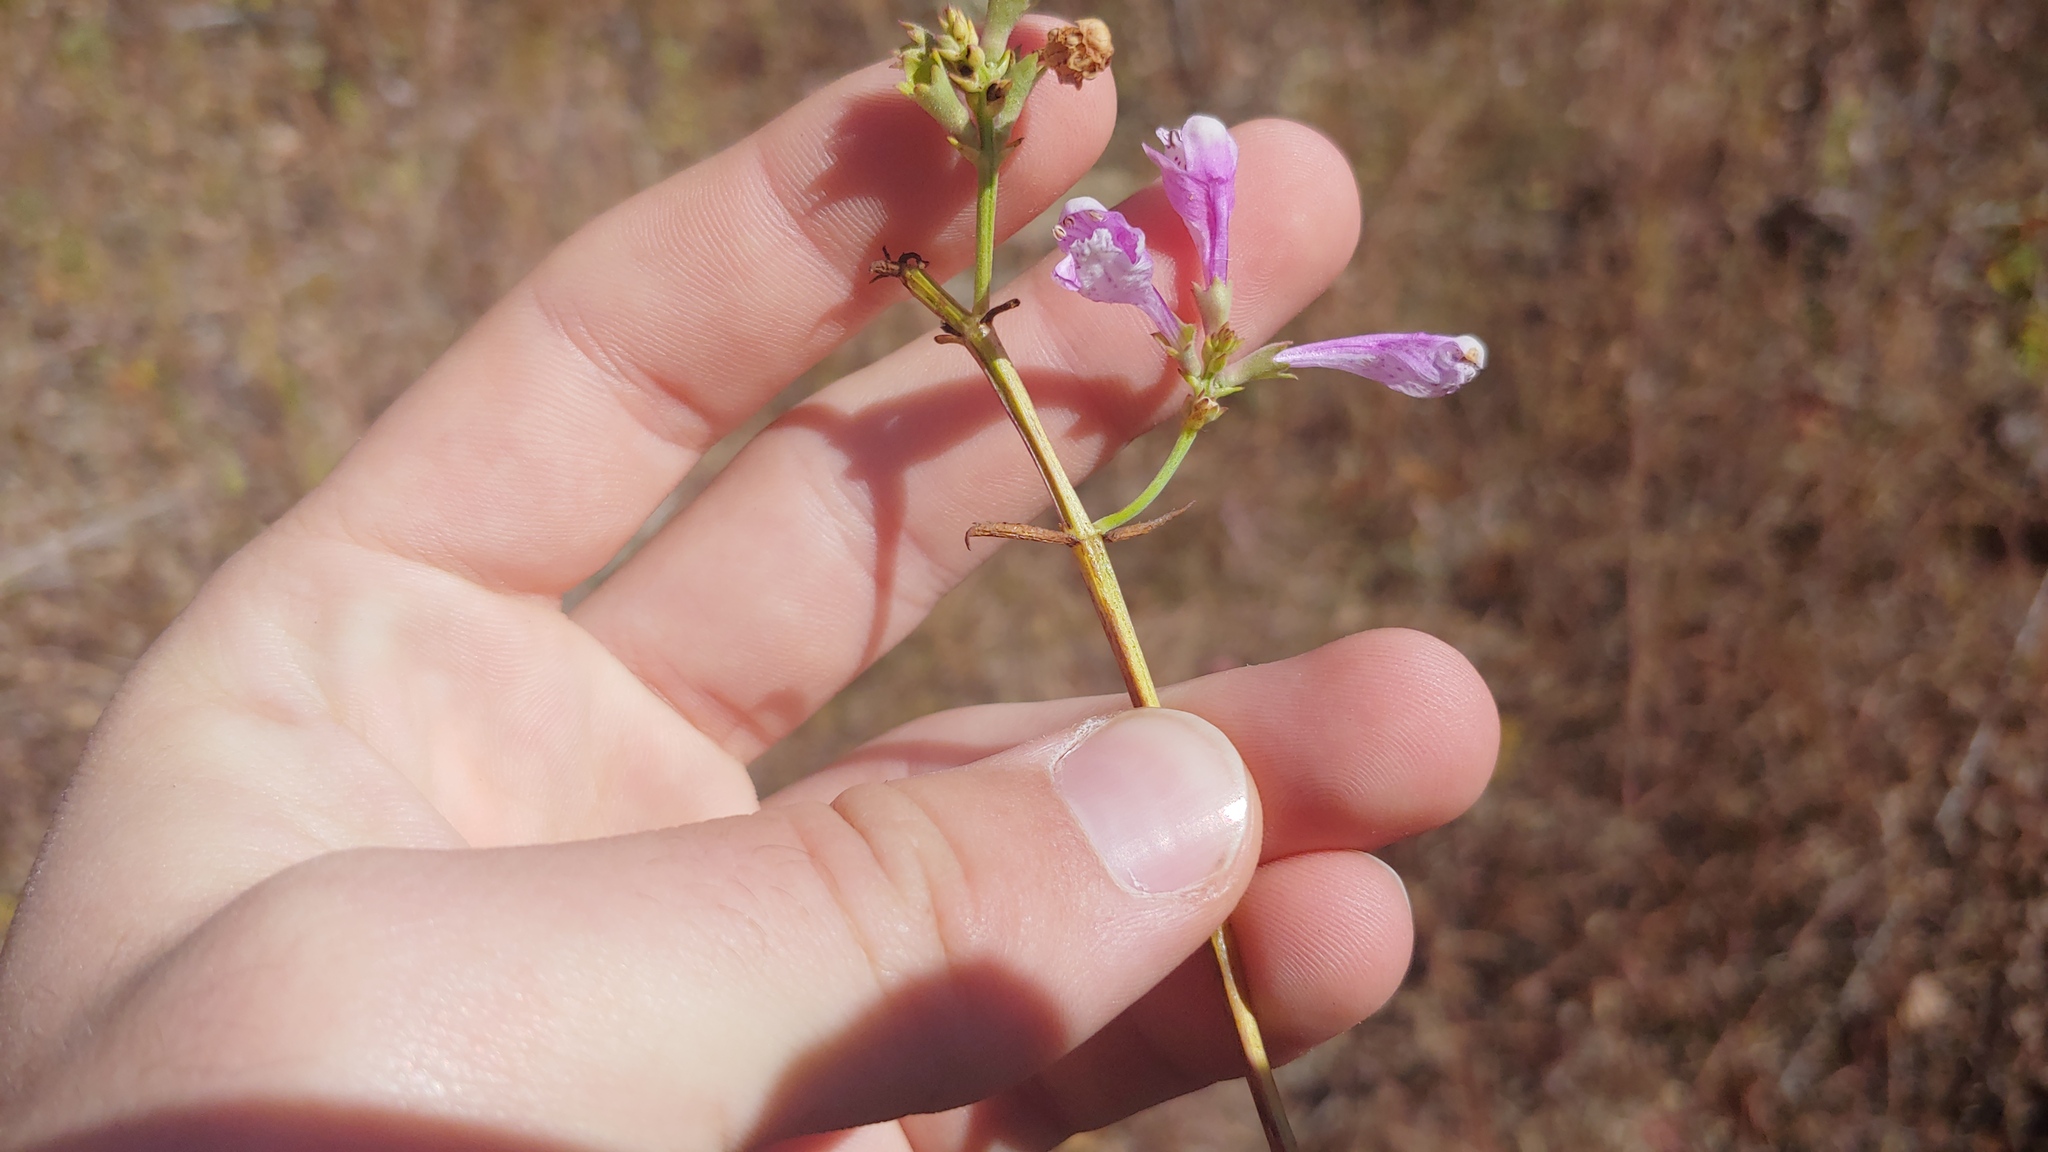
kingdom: Plantae
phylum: Tracheophyta
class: Magnoliopsida
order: Lamiales
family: Lamiaceae
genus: Physostegia
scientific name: Physostegia virginiana
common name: Obedient-plant
